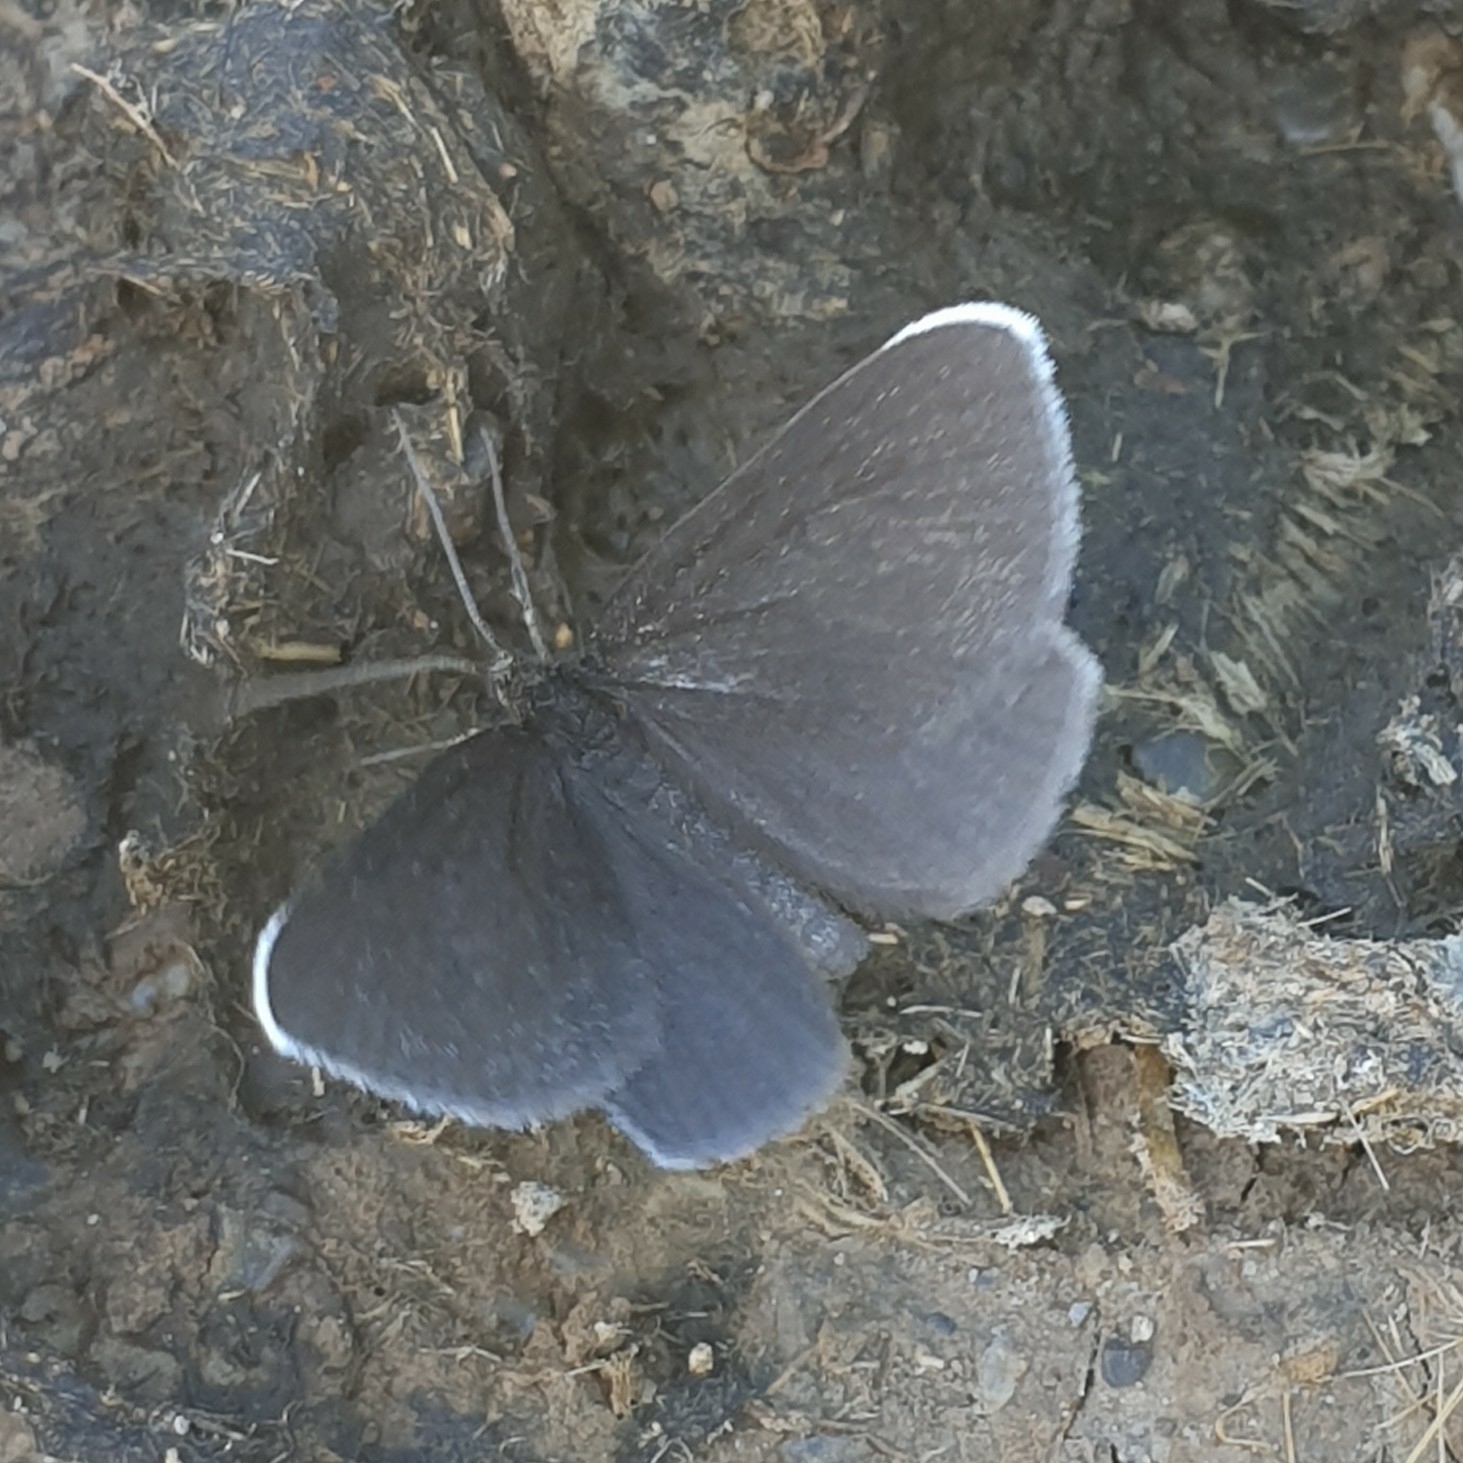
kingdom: Animalia
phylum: Arthropoda
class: Insecta
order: Lepidoptera
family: Geometridae
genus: Odezia
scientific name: Odezia atrata
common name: Chimney sweeper
